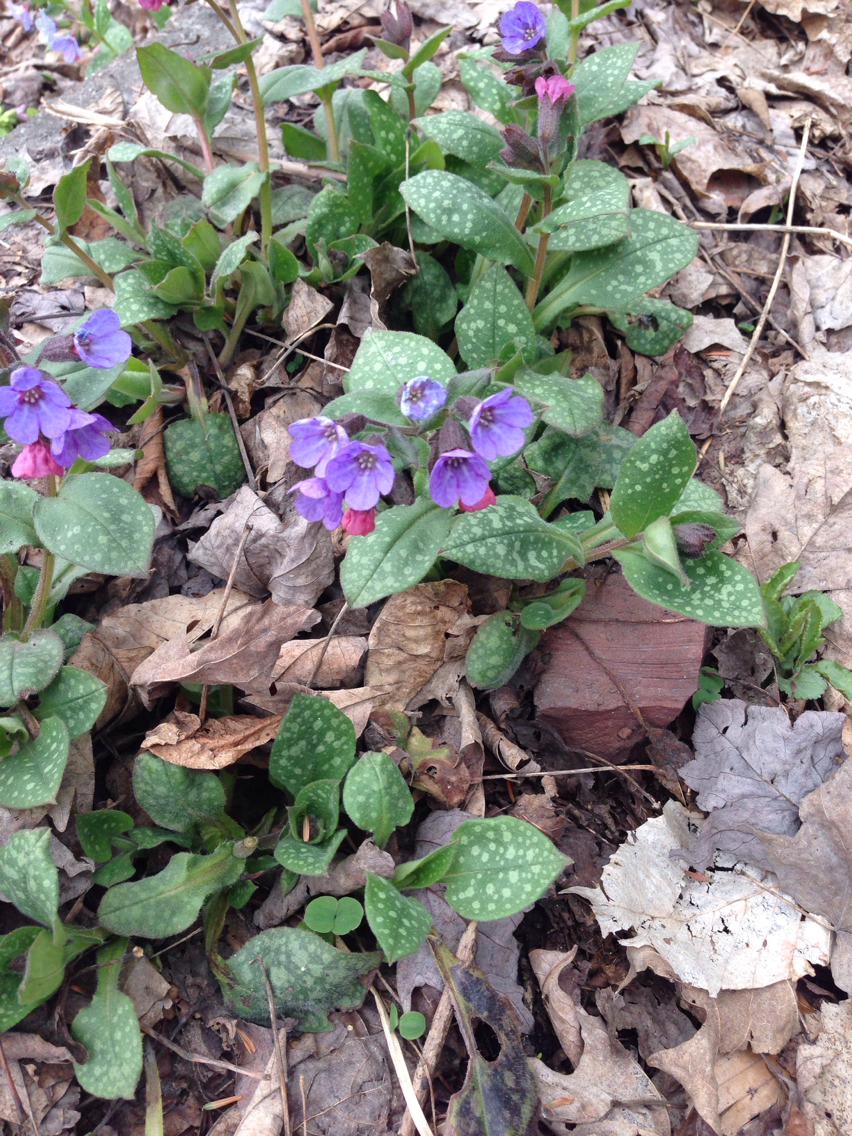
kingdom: Plantae
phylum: Tracheophyta
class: Magnoliopsida
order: Boraginales
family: Boraginaceae
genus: Pulmonaria
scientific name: Pulmonaria officinalis
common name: Lungwort
